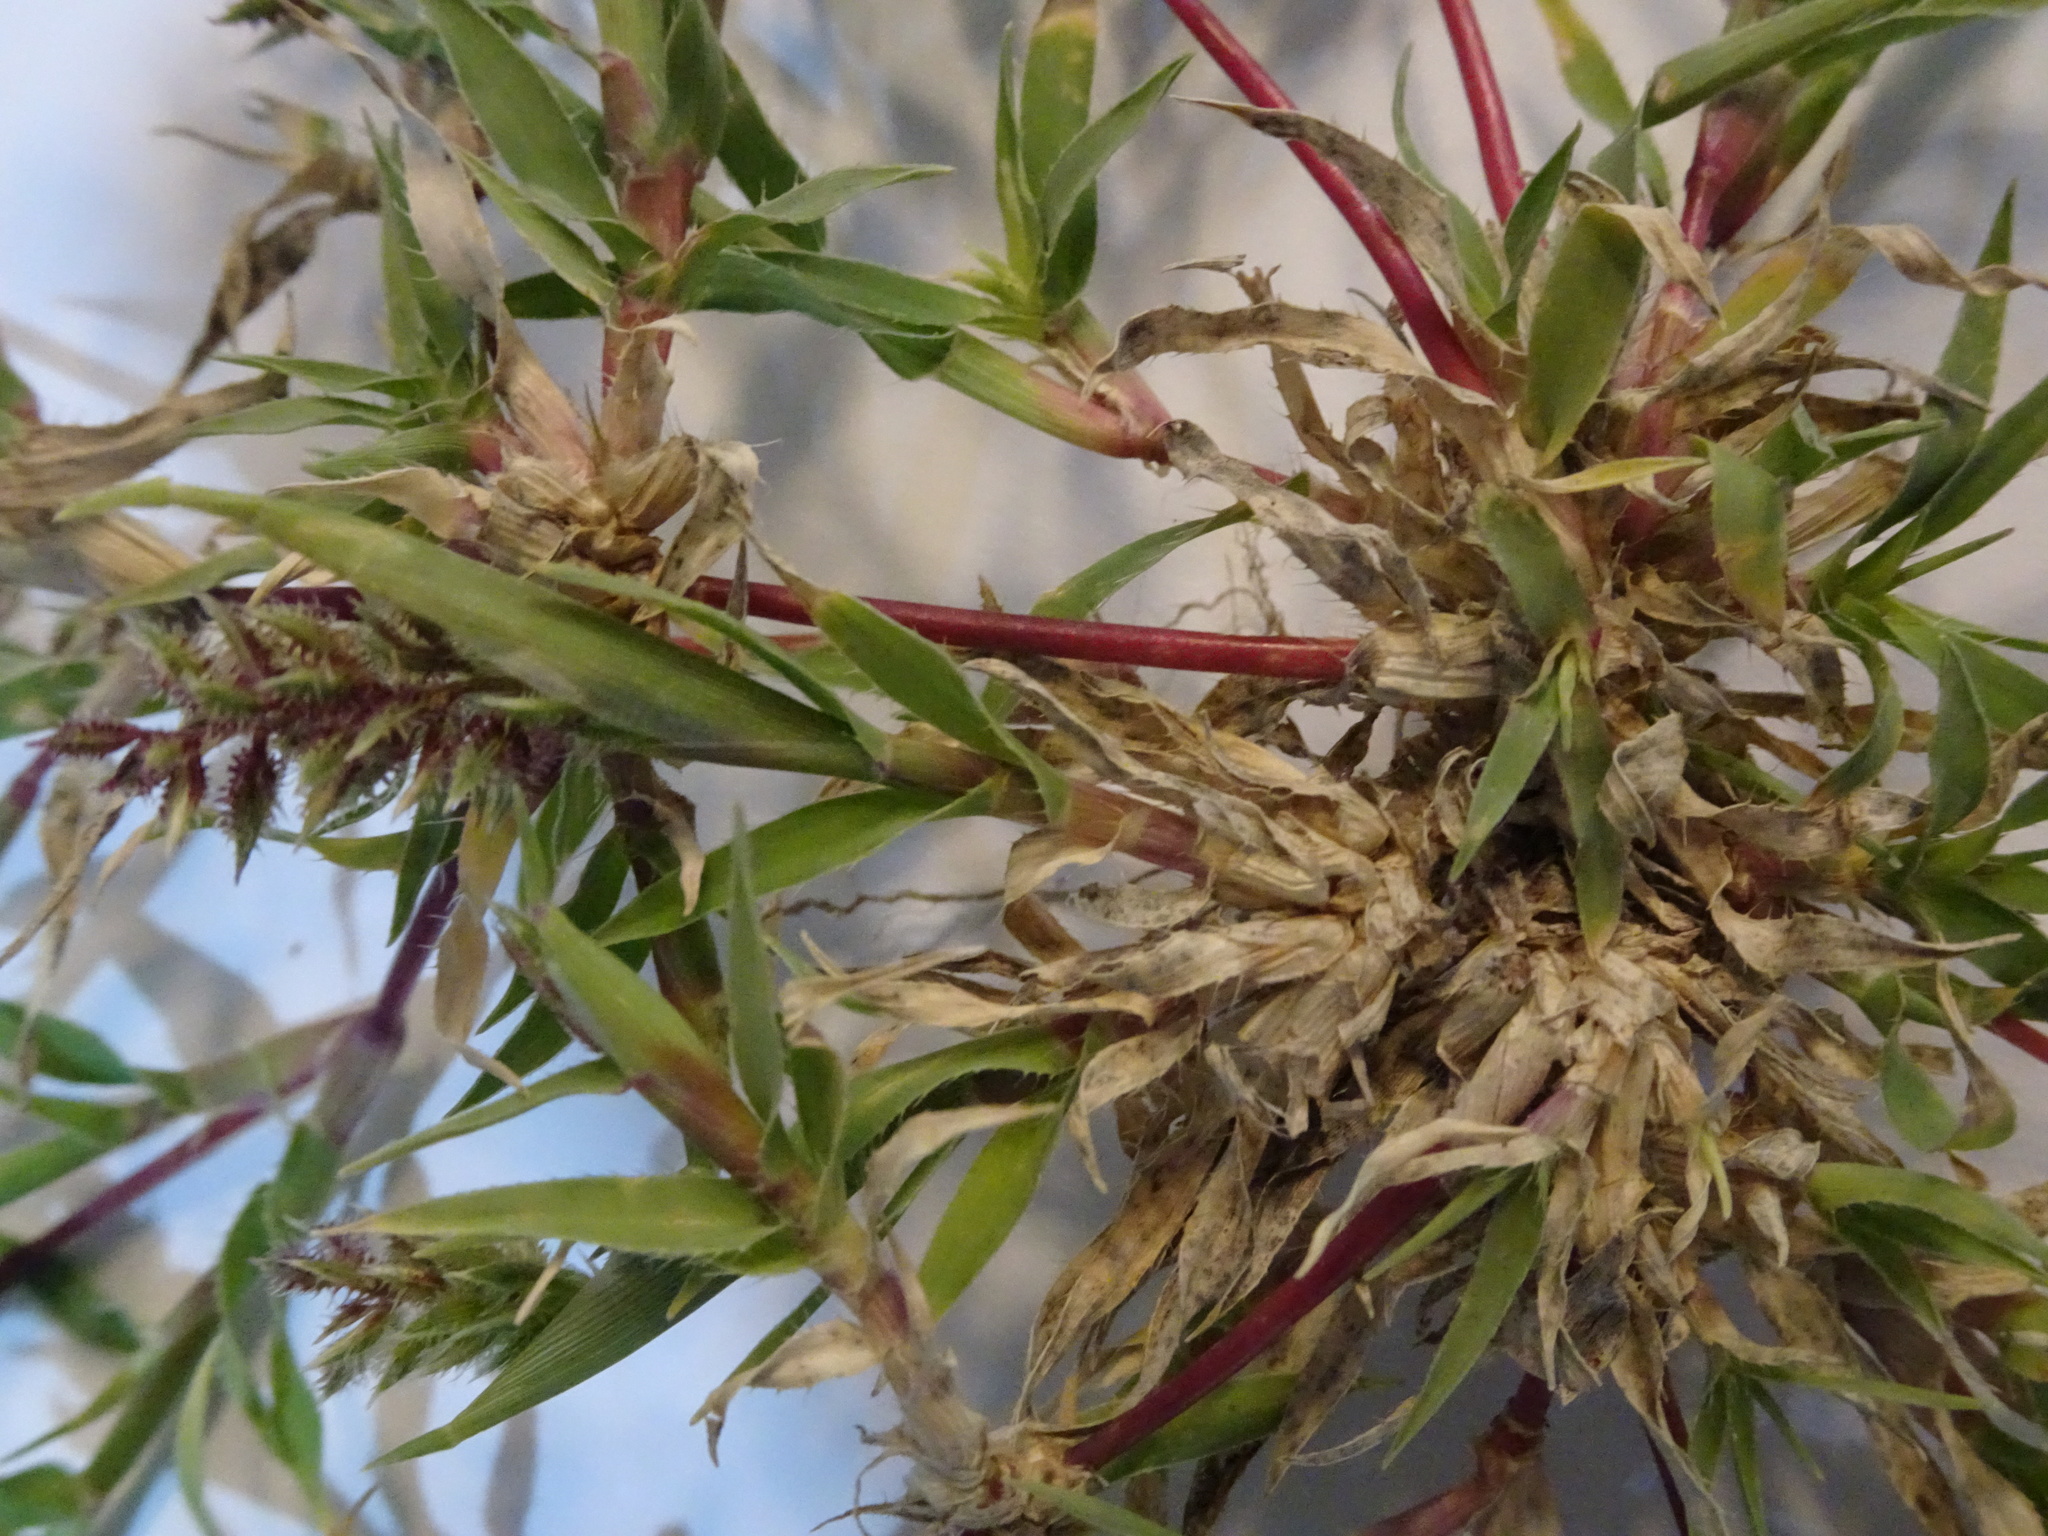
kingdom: Plantae
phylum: Tracheophyta
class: Liliopsida
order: Poales
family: Poaceae
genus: Tragus
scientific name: Tragus racemosus
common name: European bur-grass
